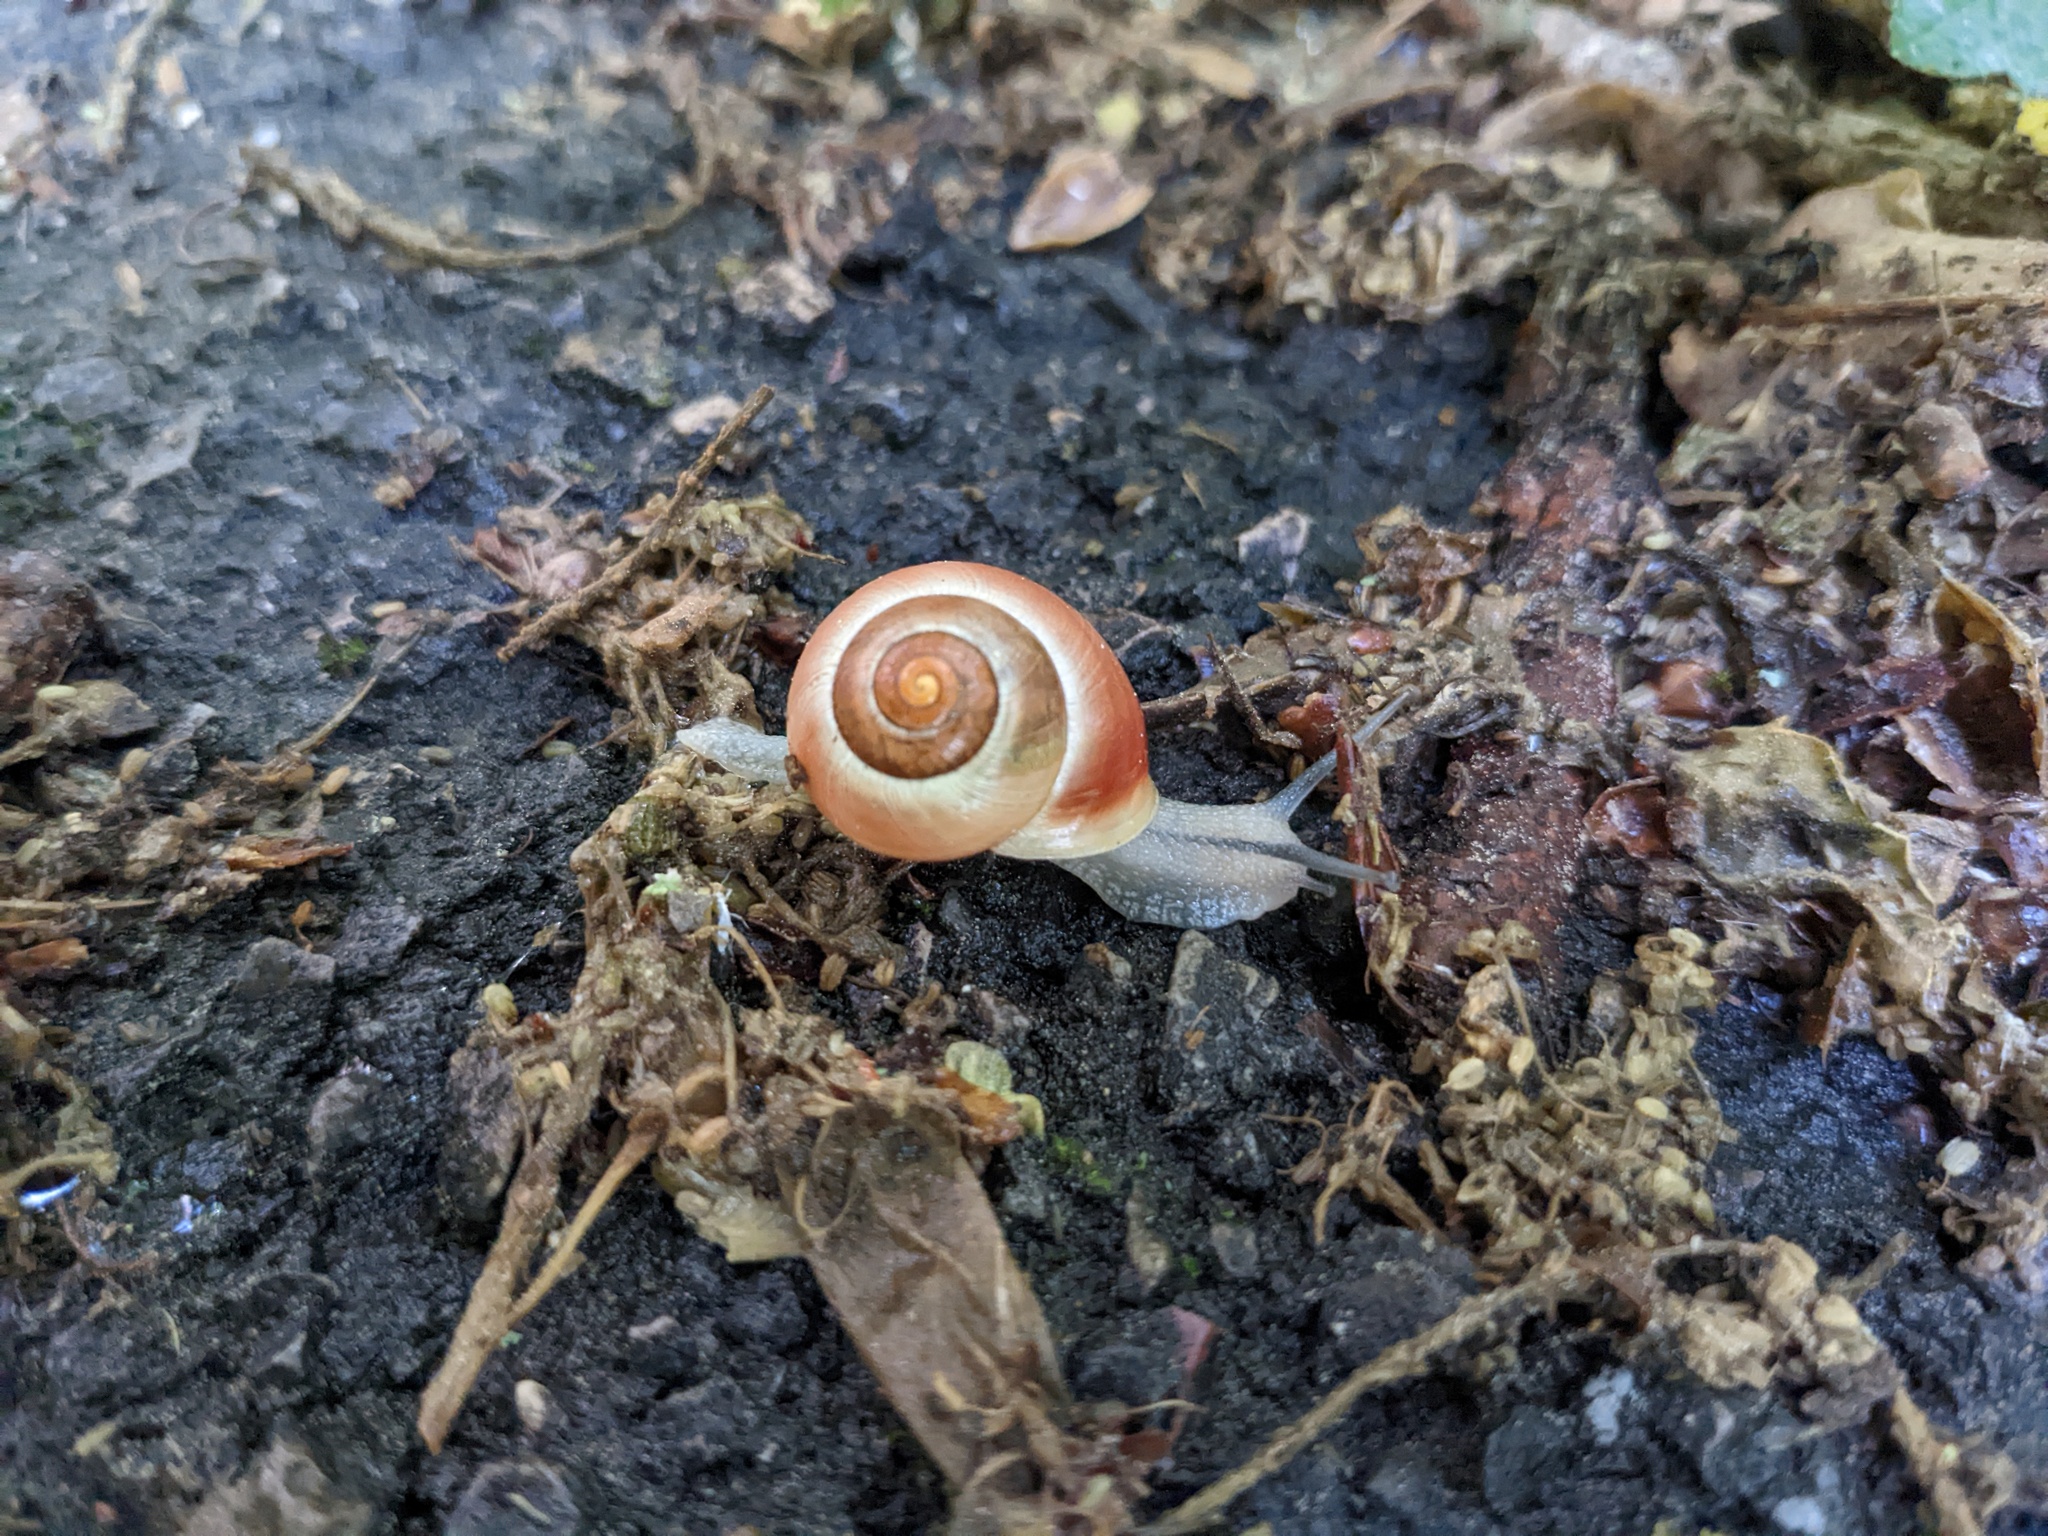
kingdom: Animalia
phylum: Mollusca
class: Gastropoda
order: Stylommatophora
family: Helicidae
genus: Cepaea
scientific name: Cepaea hortensis
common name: White-lip gardensnail
